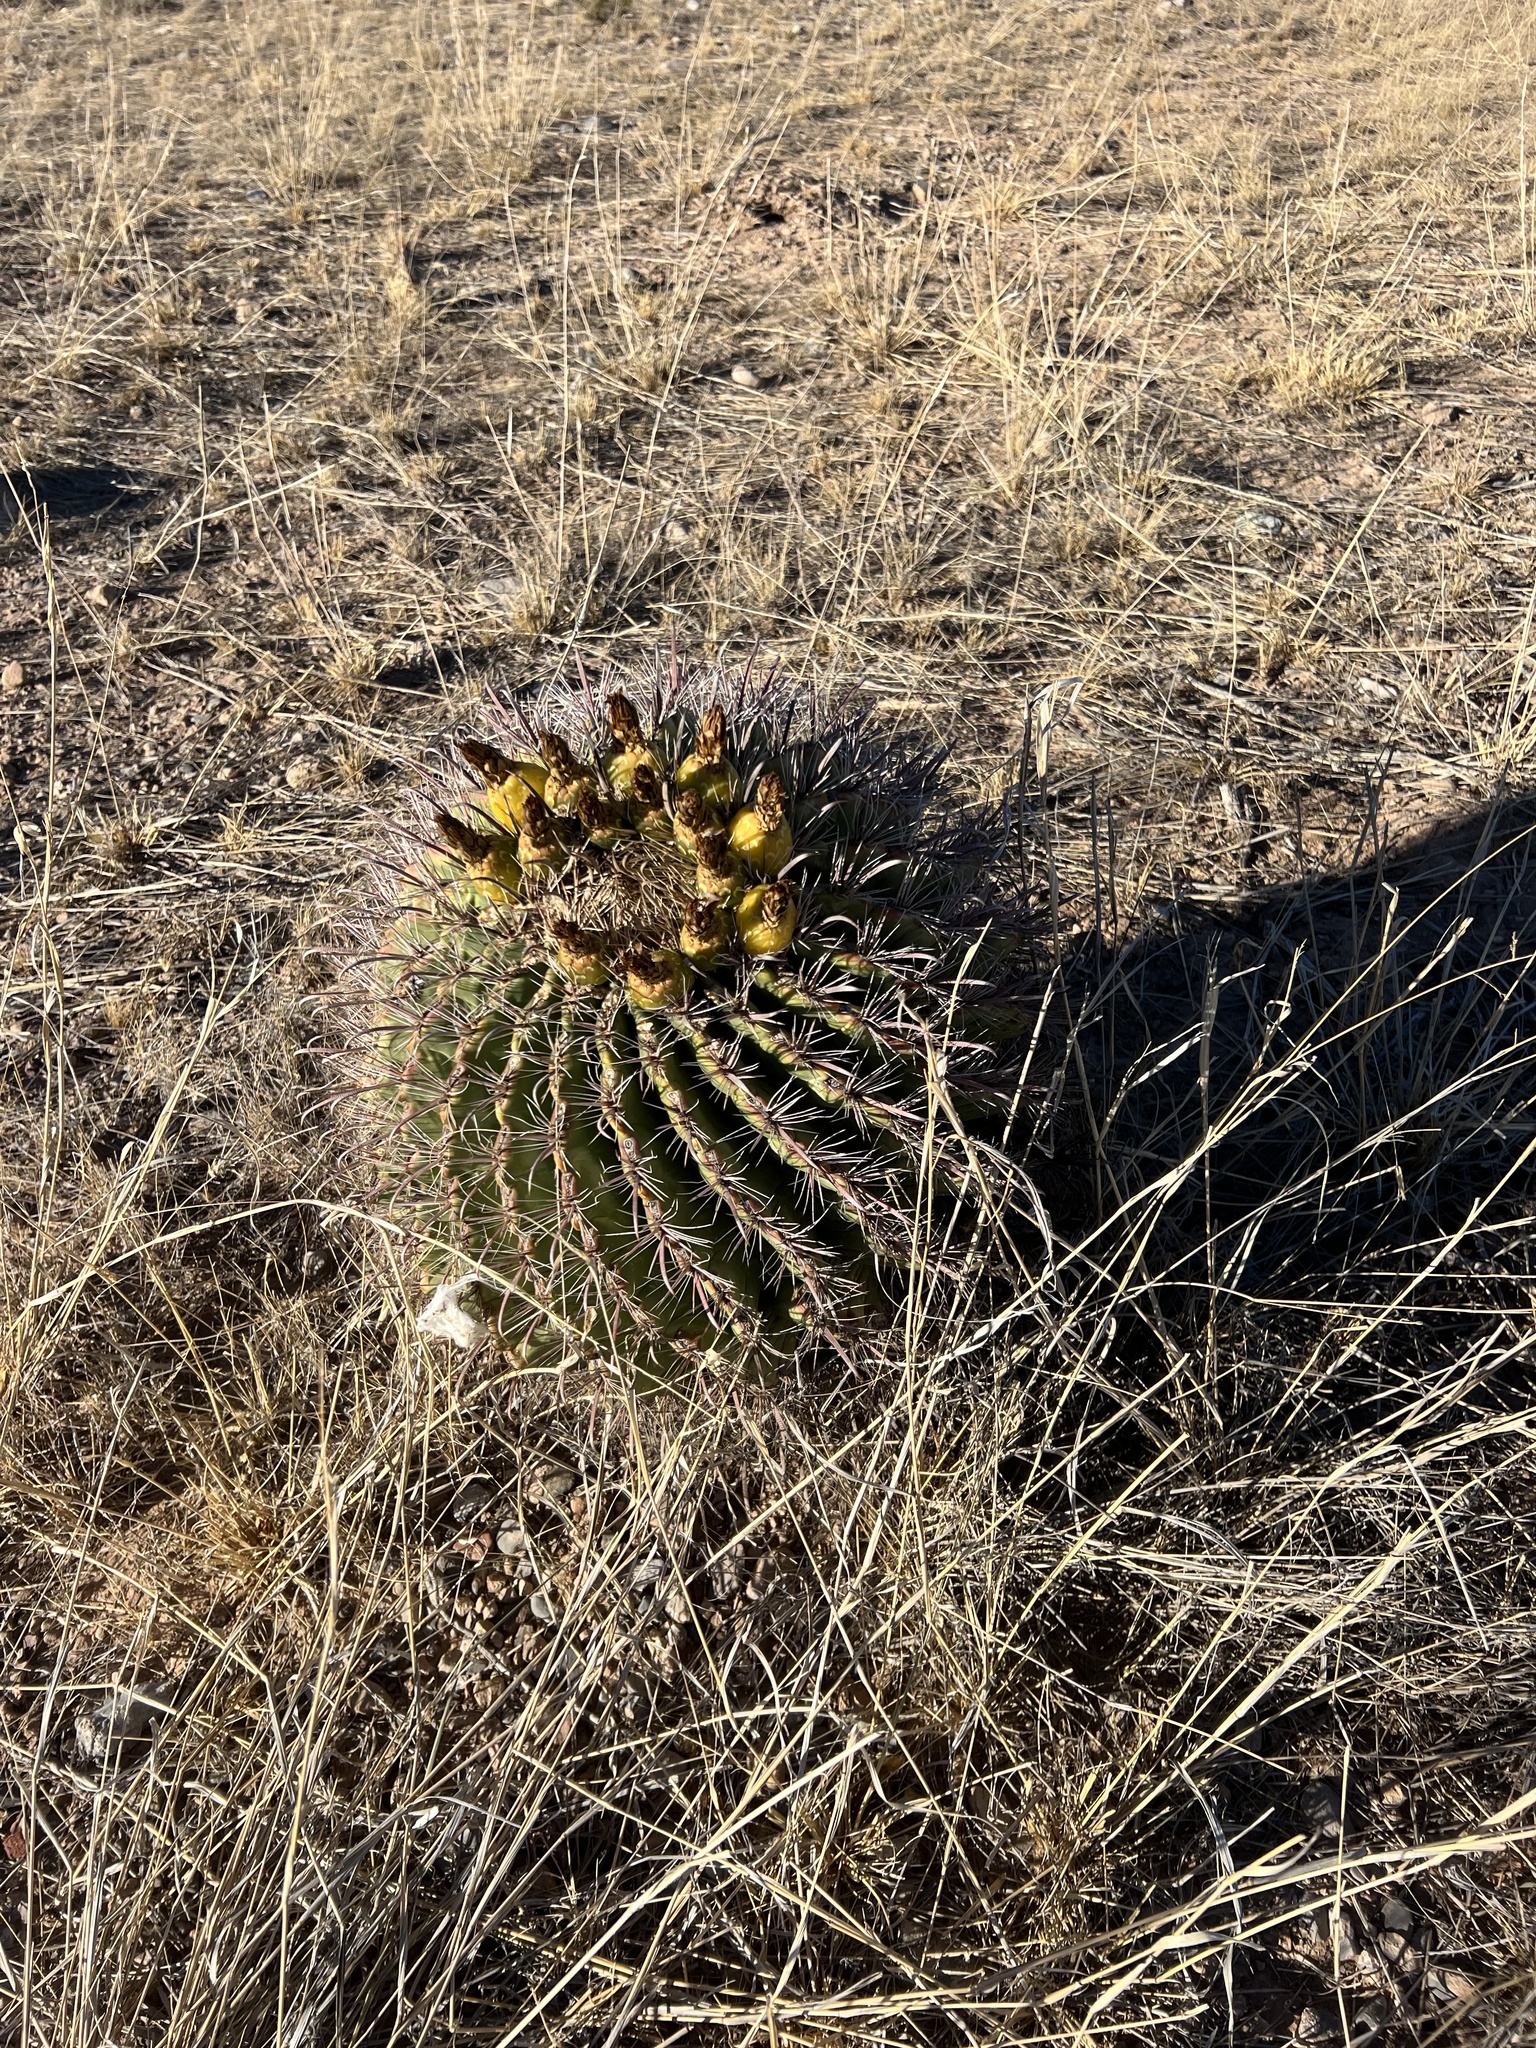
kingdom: Plantae
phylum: Tracheophyta
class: Magnoliopsida
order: Caryophyllales
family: Cactaceae
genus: Ferocactus
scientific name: Ferocactus wislizeni
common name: Candy barrel cactus
